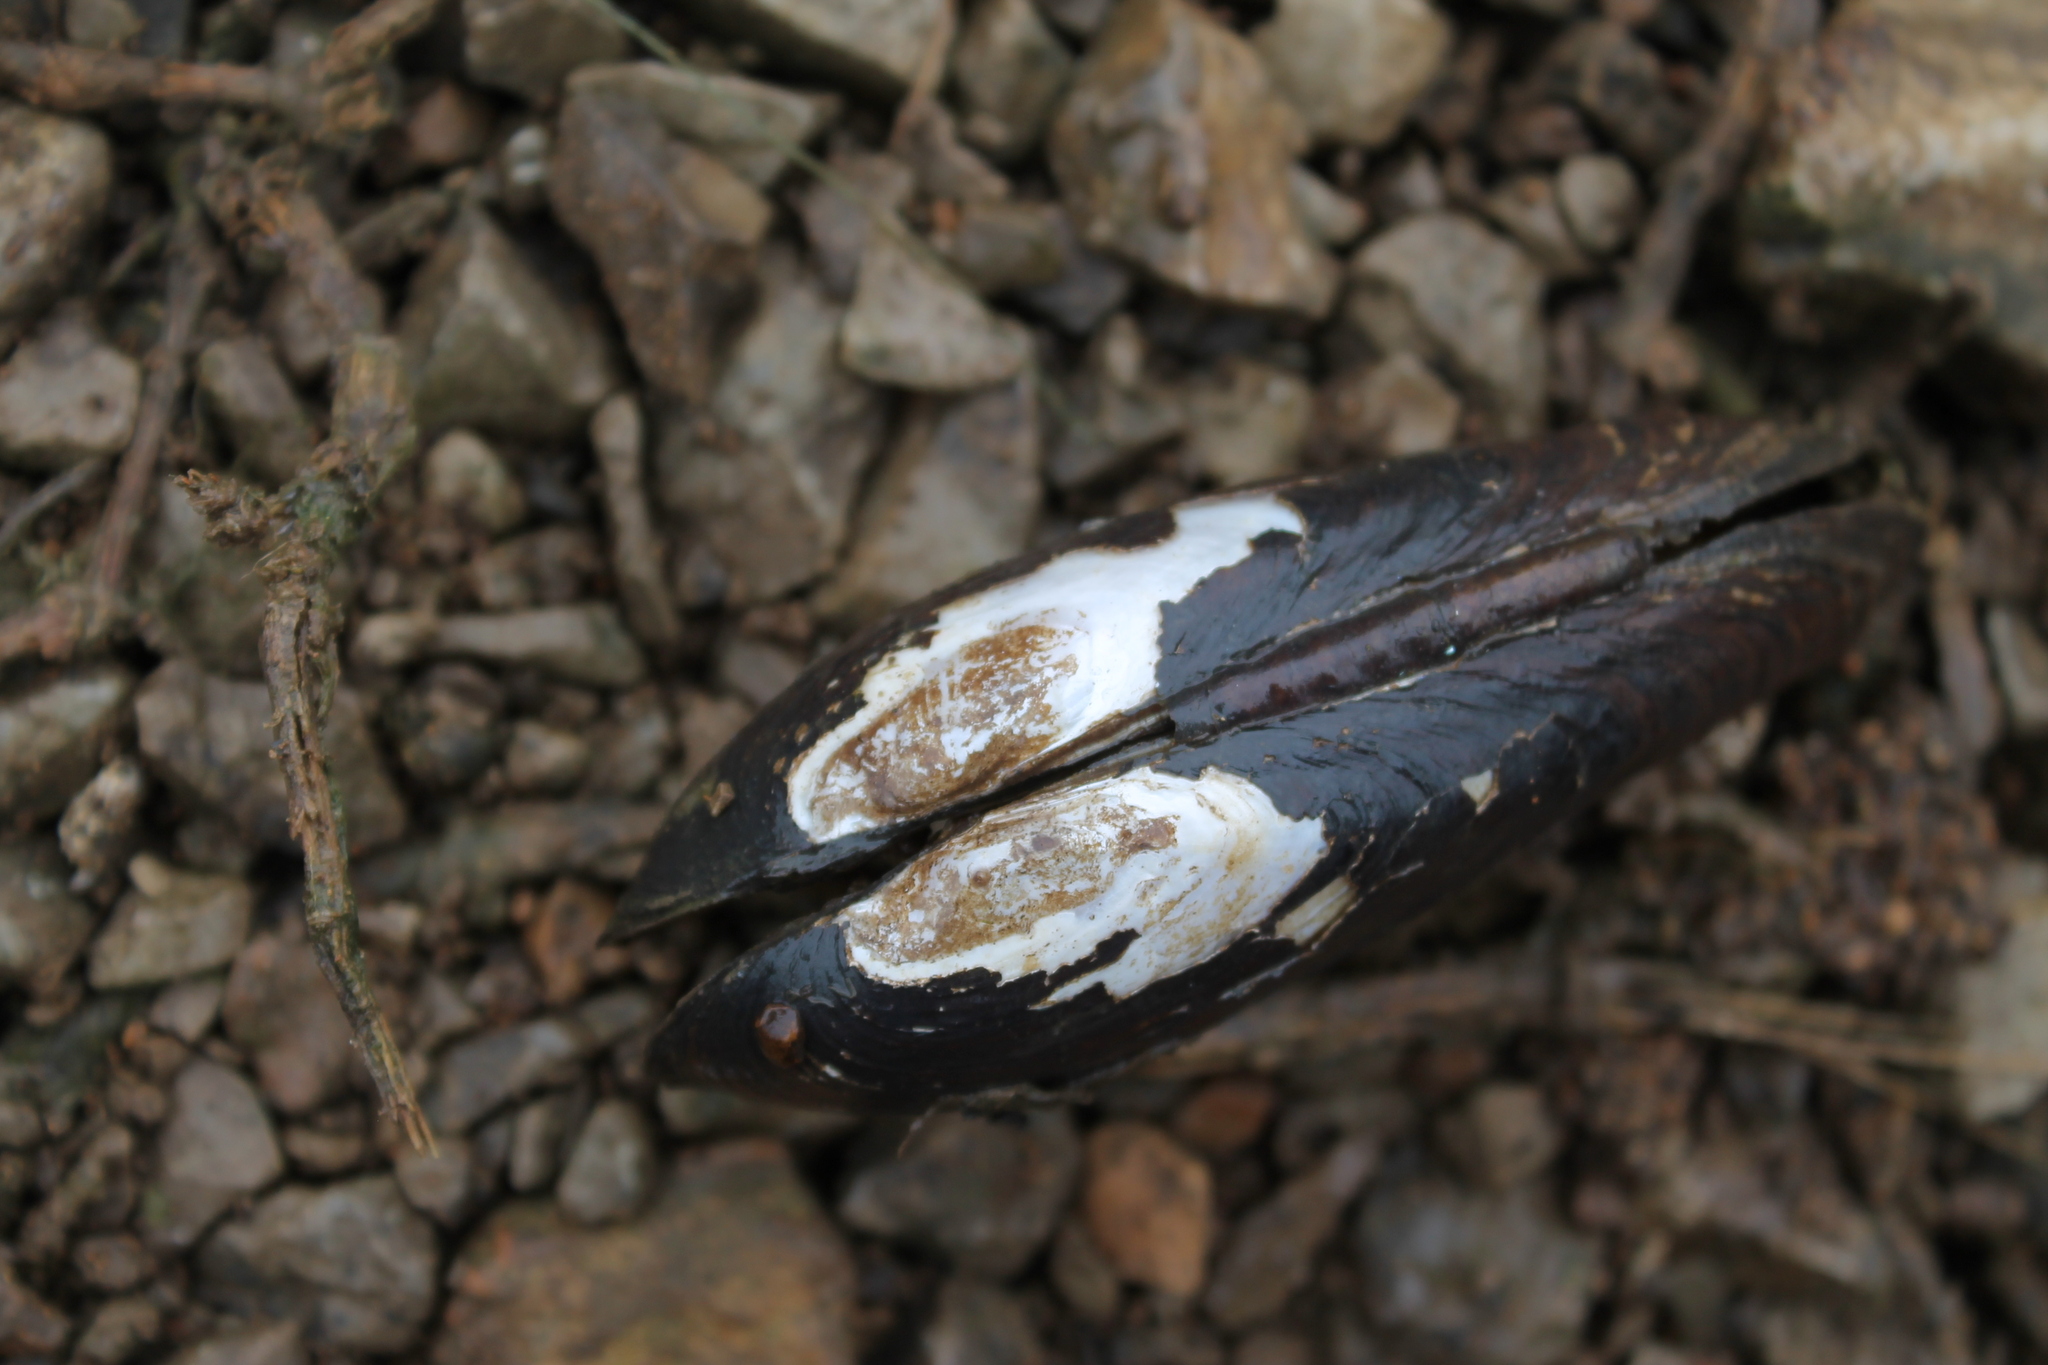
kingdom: Animalia
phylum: Mollusca
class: Bivalvia
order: Unionida
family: Unionidae
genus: Eurynia
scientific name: Eurynia dilatata
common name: Spike
